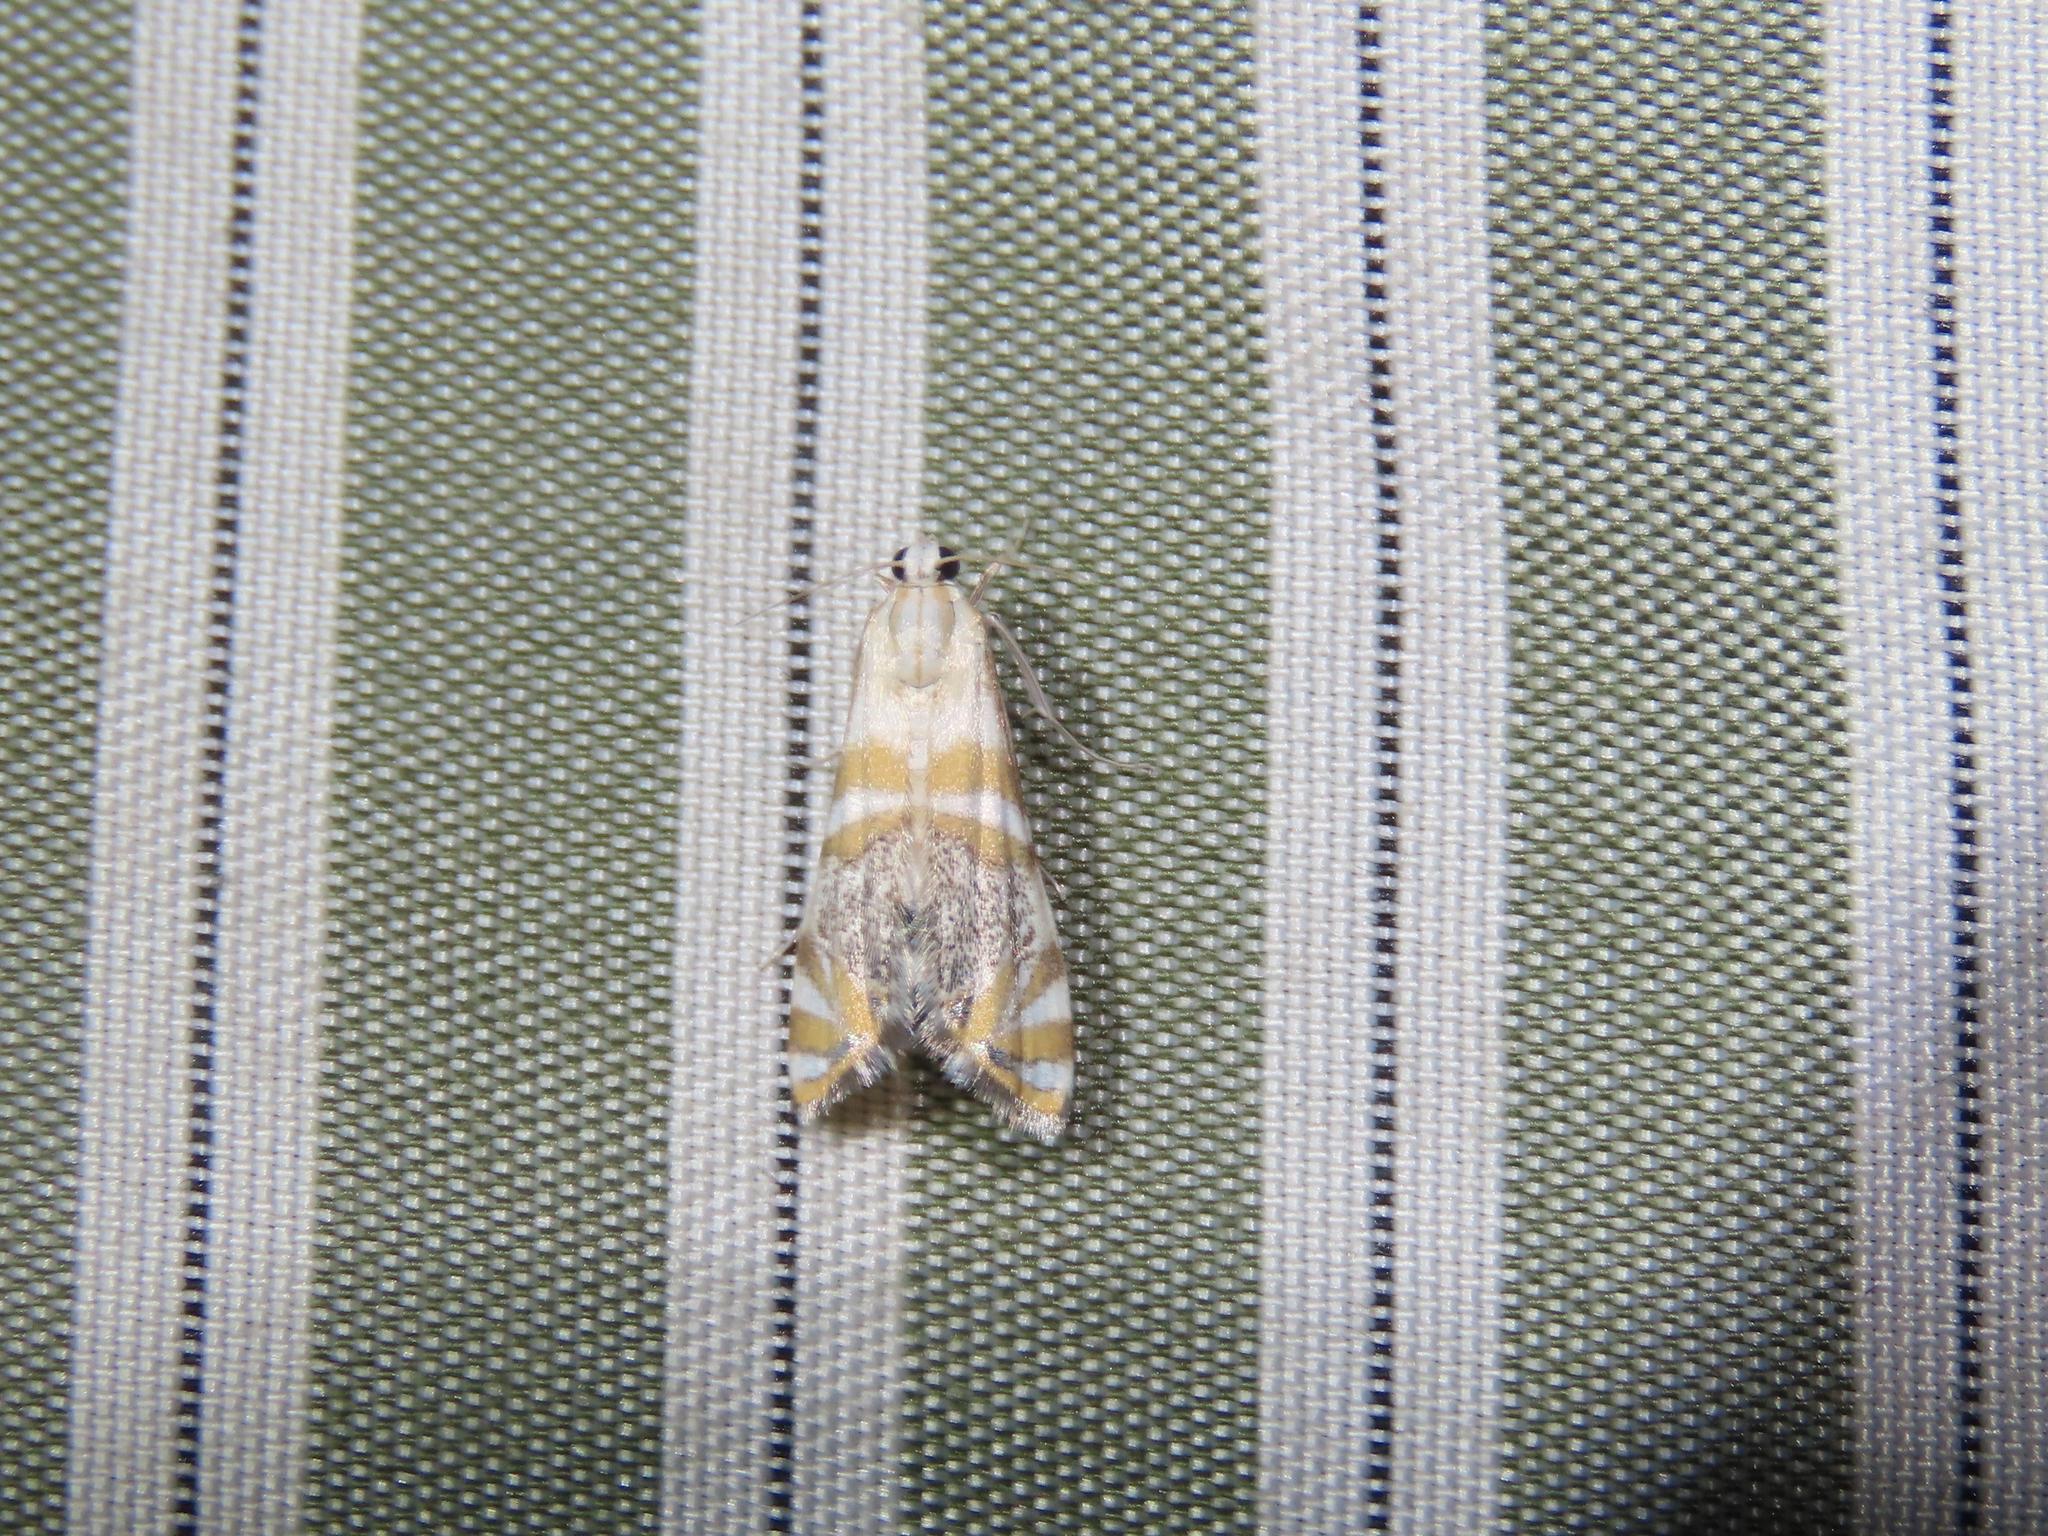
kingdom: Animalia
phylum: Arthropoda
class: Insecta
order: Lepidoptera
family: Crambidae
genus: Petrophila
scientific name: Petrophila kearfottalis
